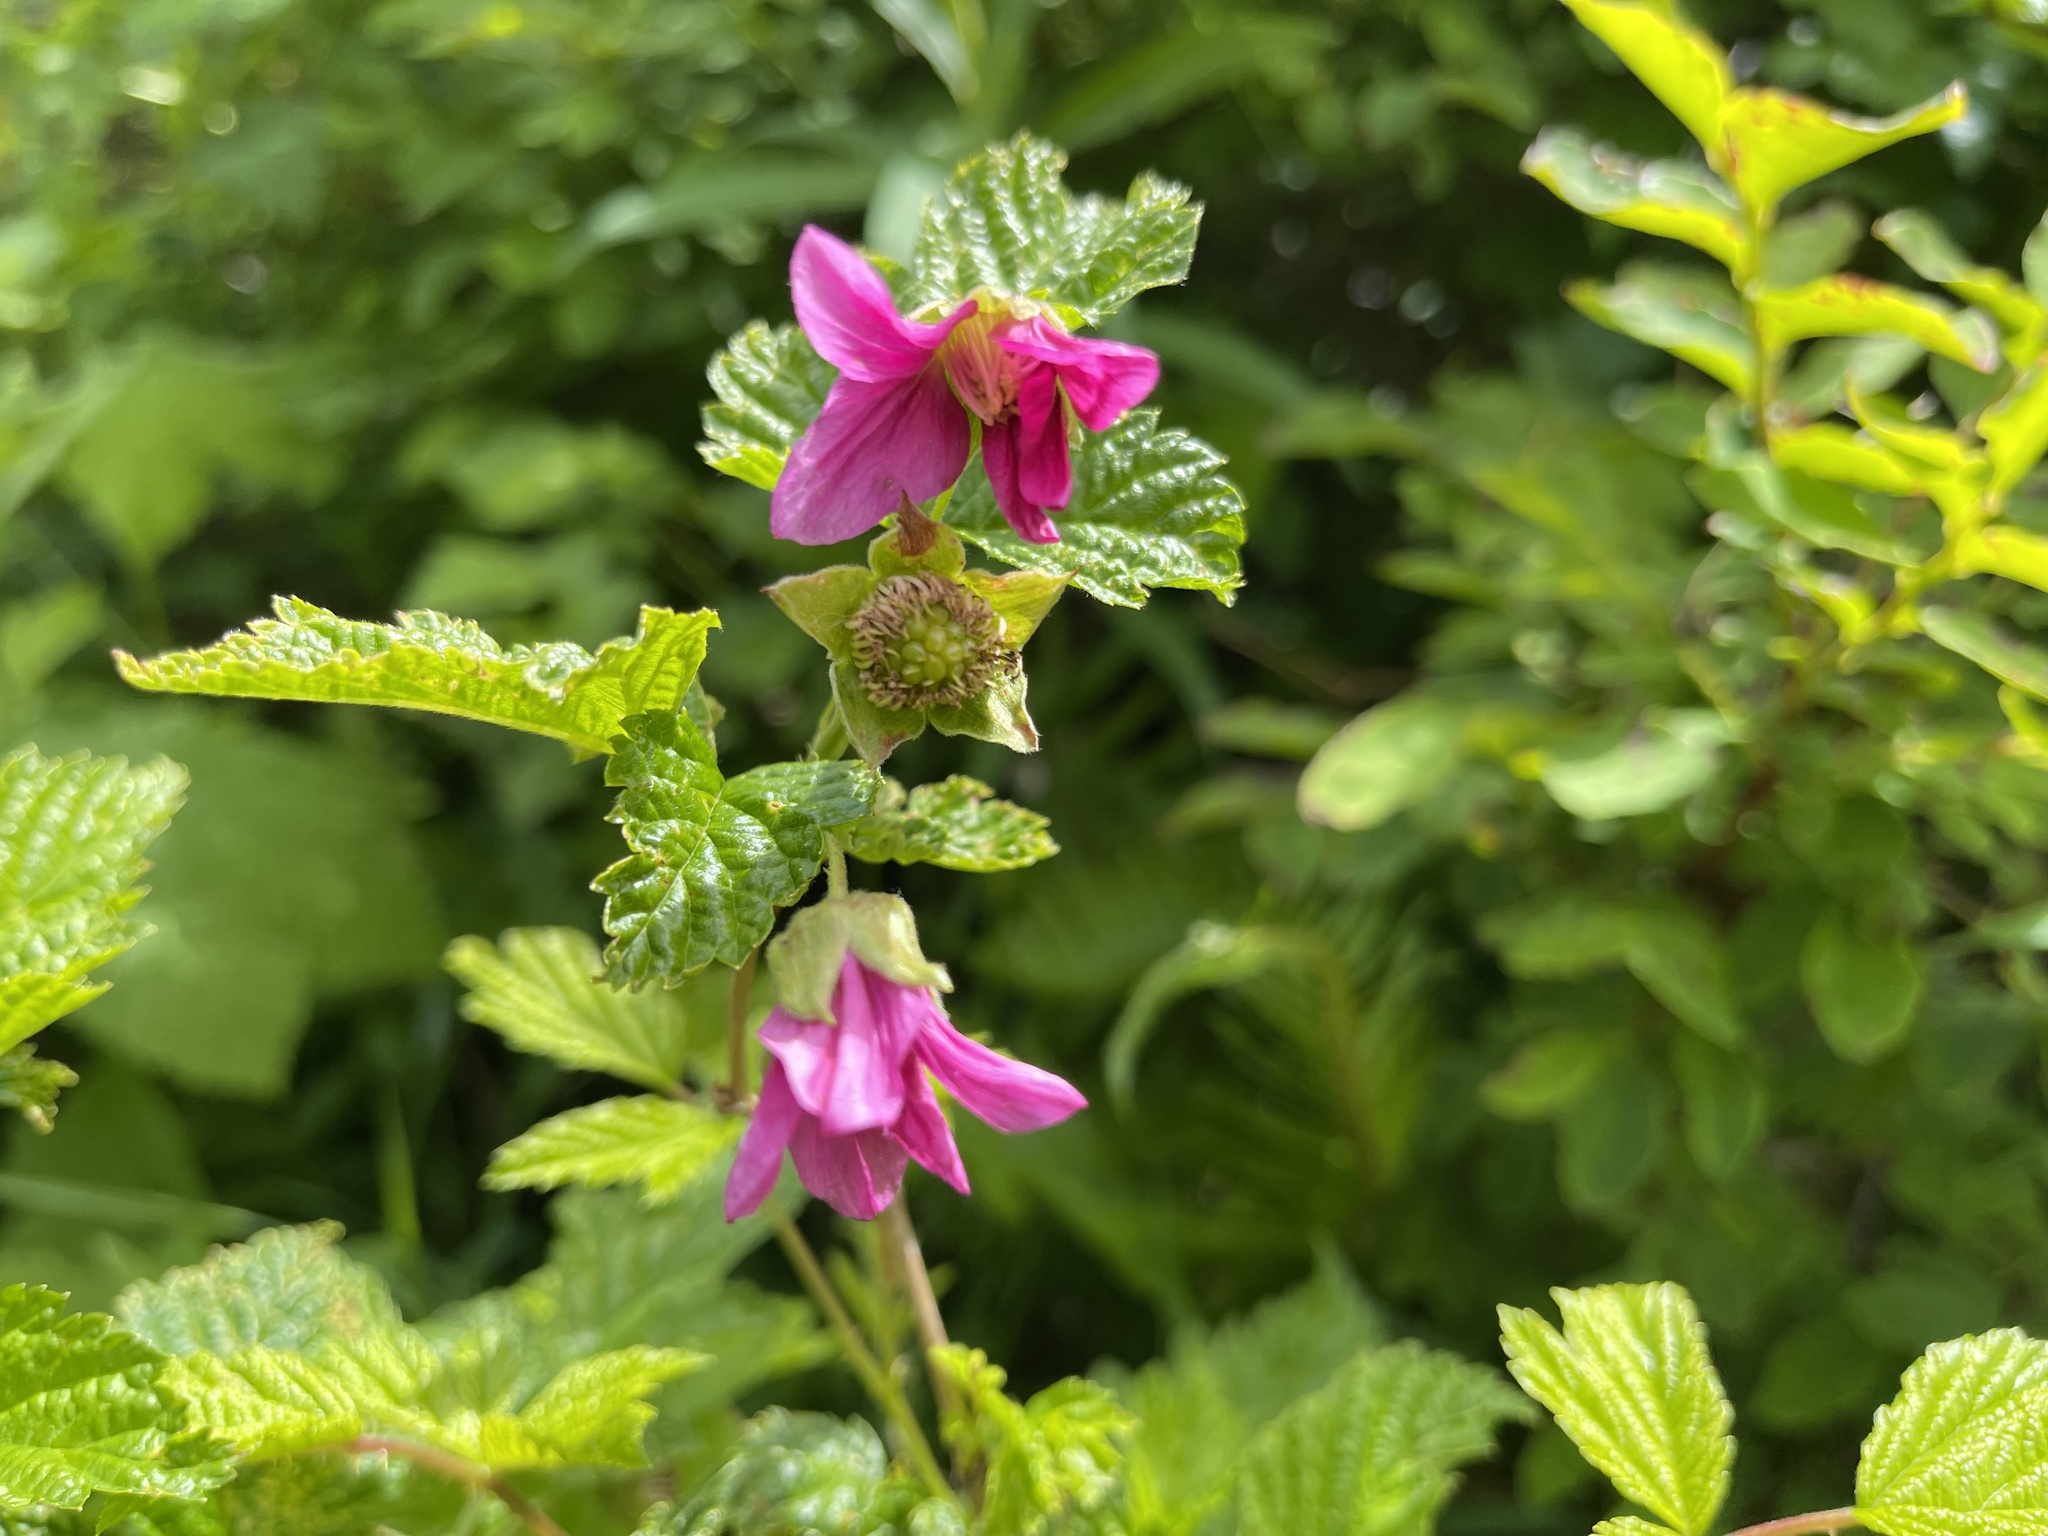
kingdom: Plantae
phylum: Tracheophyta
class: Magnoliopsida
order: Rosales
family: Rosaceae
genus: Rubus
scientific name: Rubus spectabilis
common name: Salmonberry
